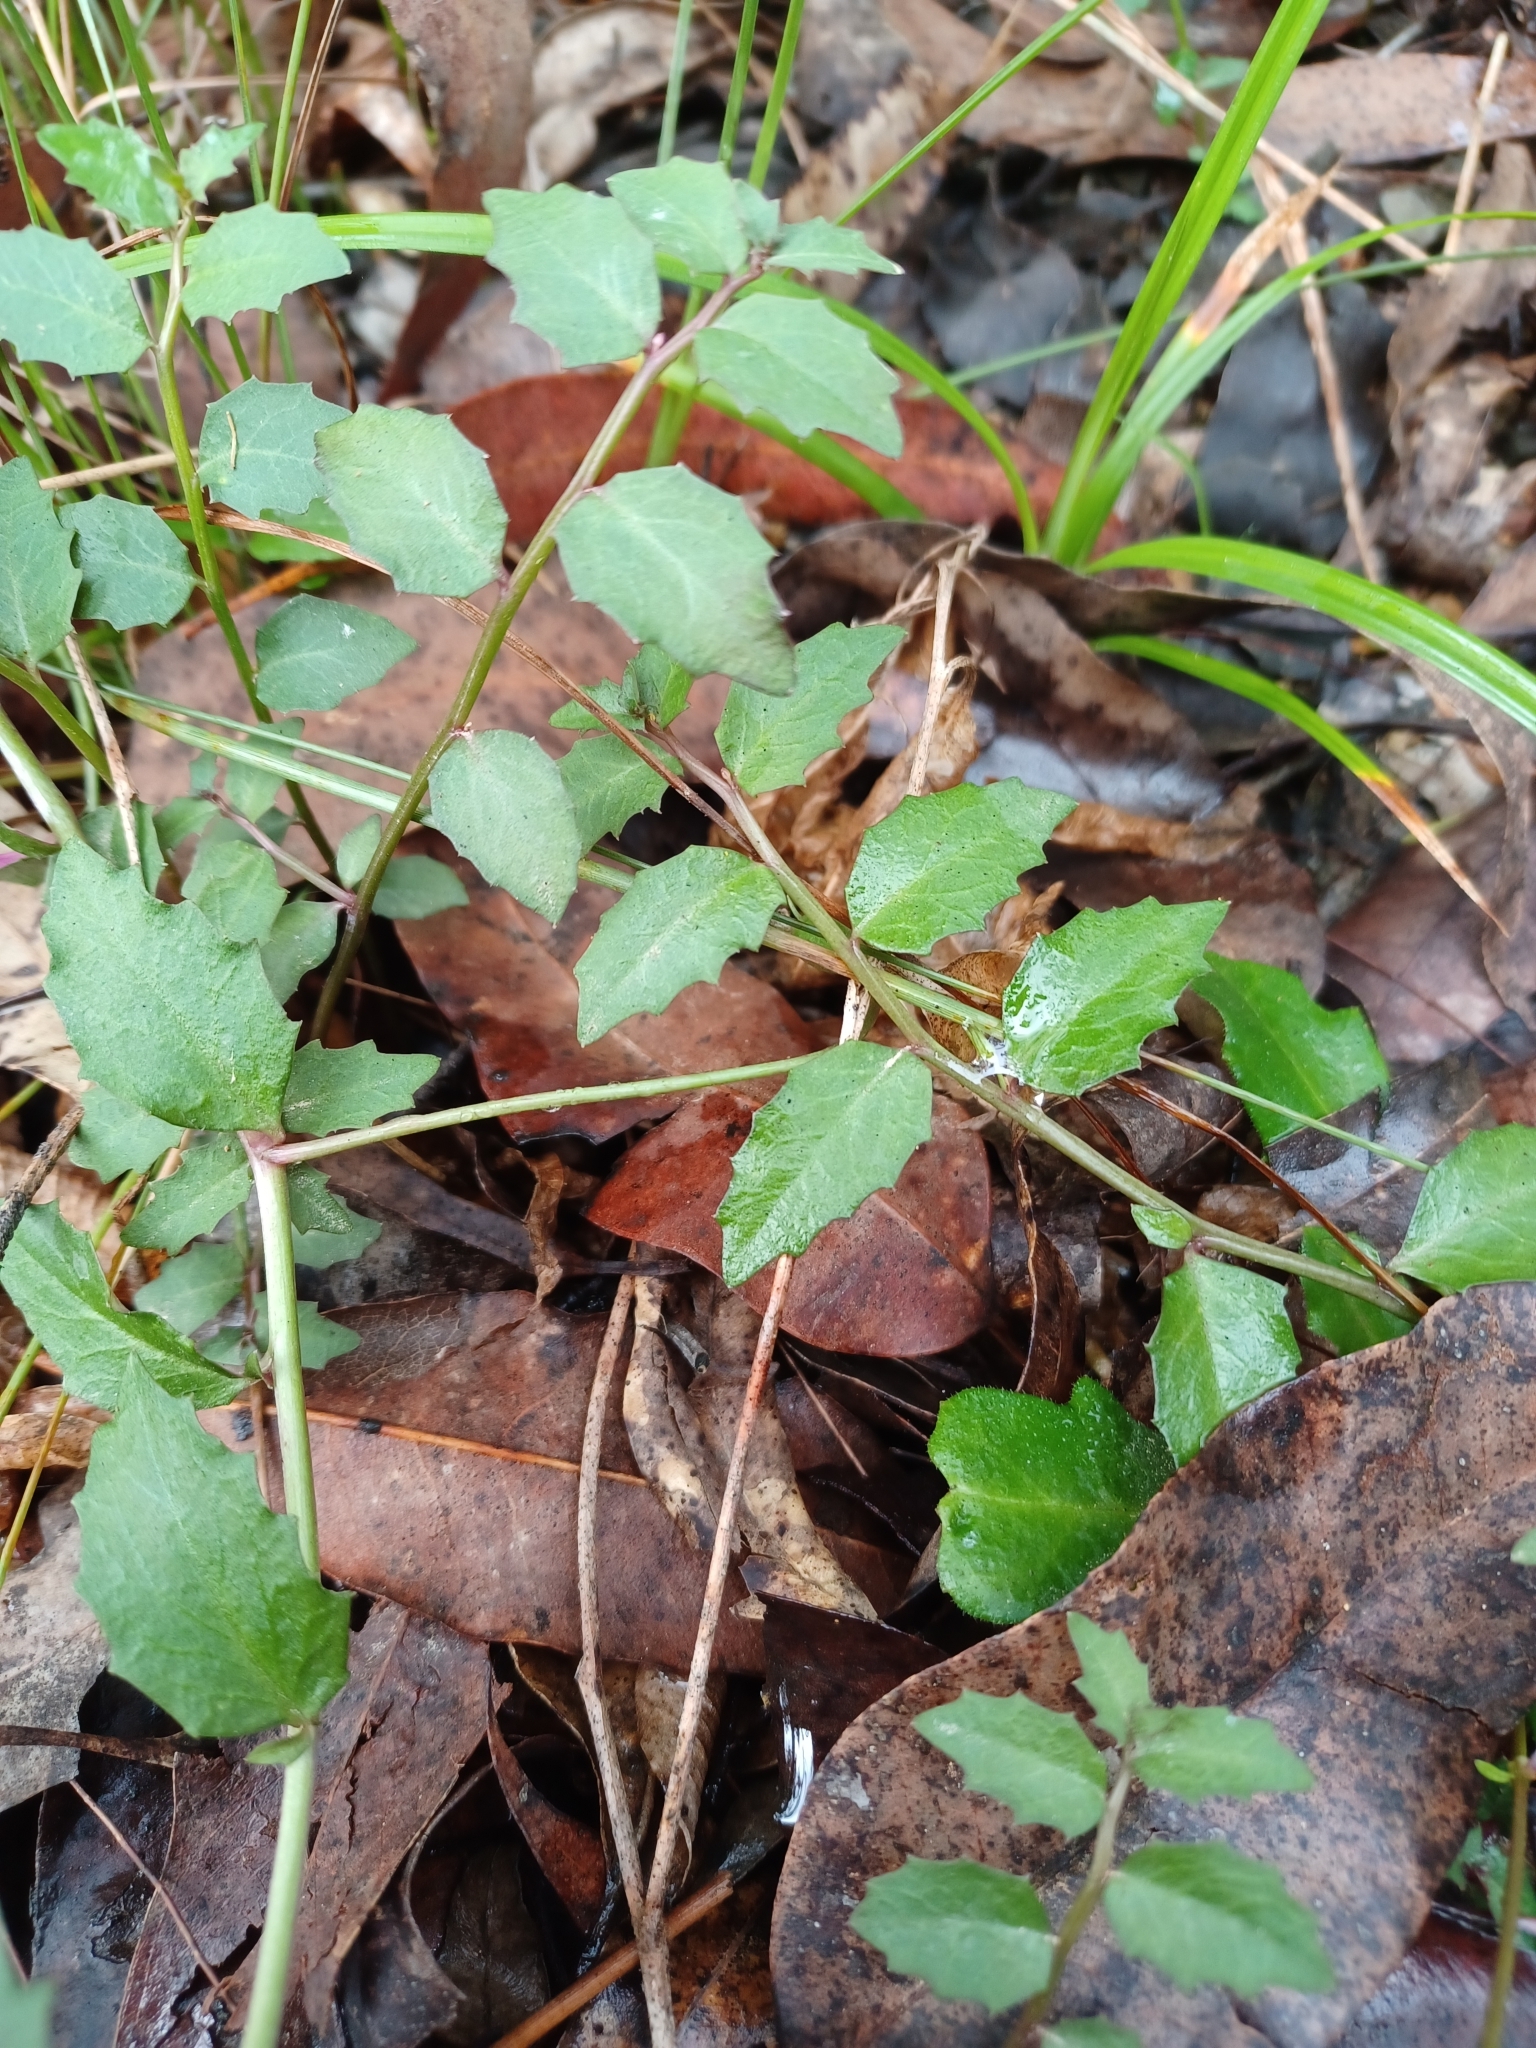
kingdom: Plantae
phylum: Tracheophyta
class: Magnoliopsida
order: Asterales
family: Campanulaceae
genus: Lobelia
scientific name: Lobelia purpurascens
